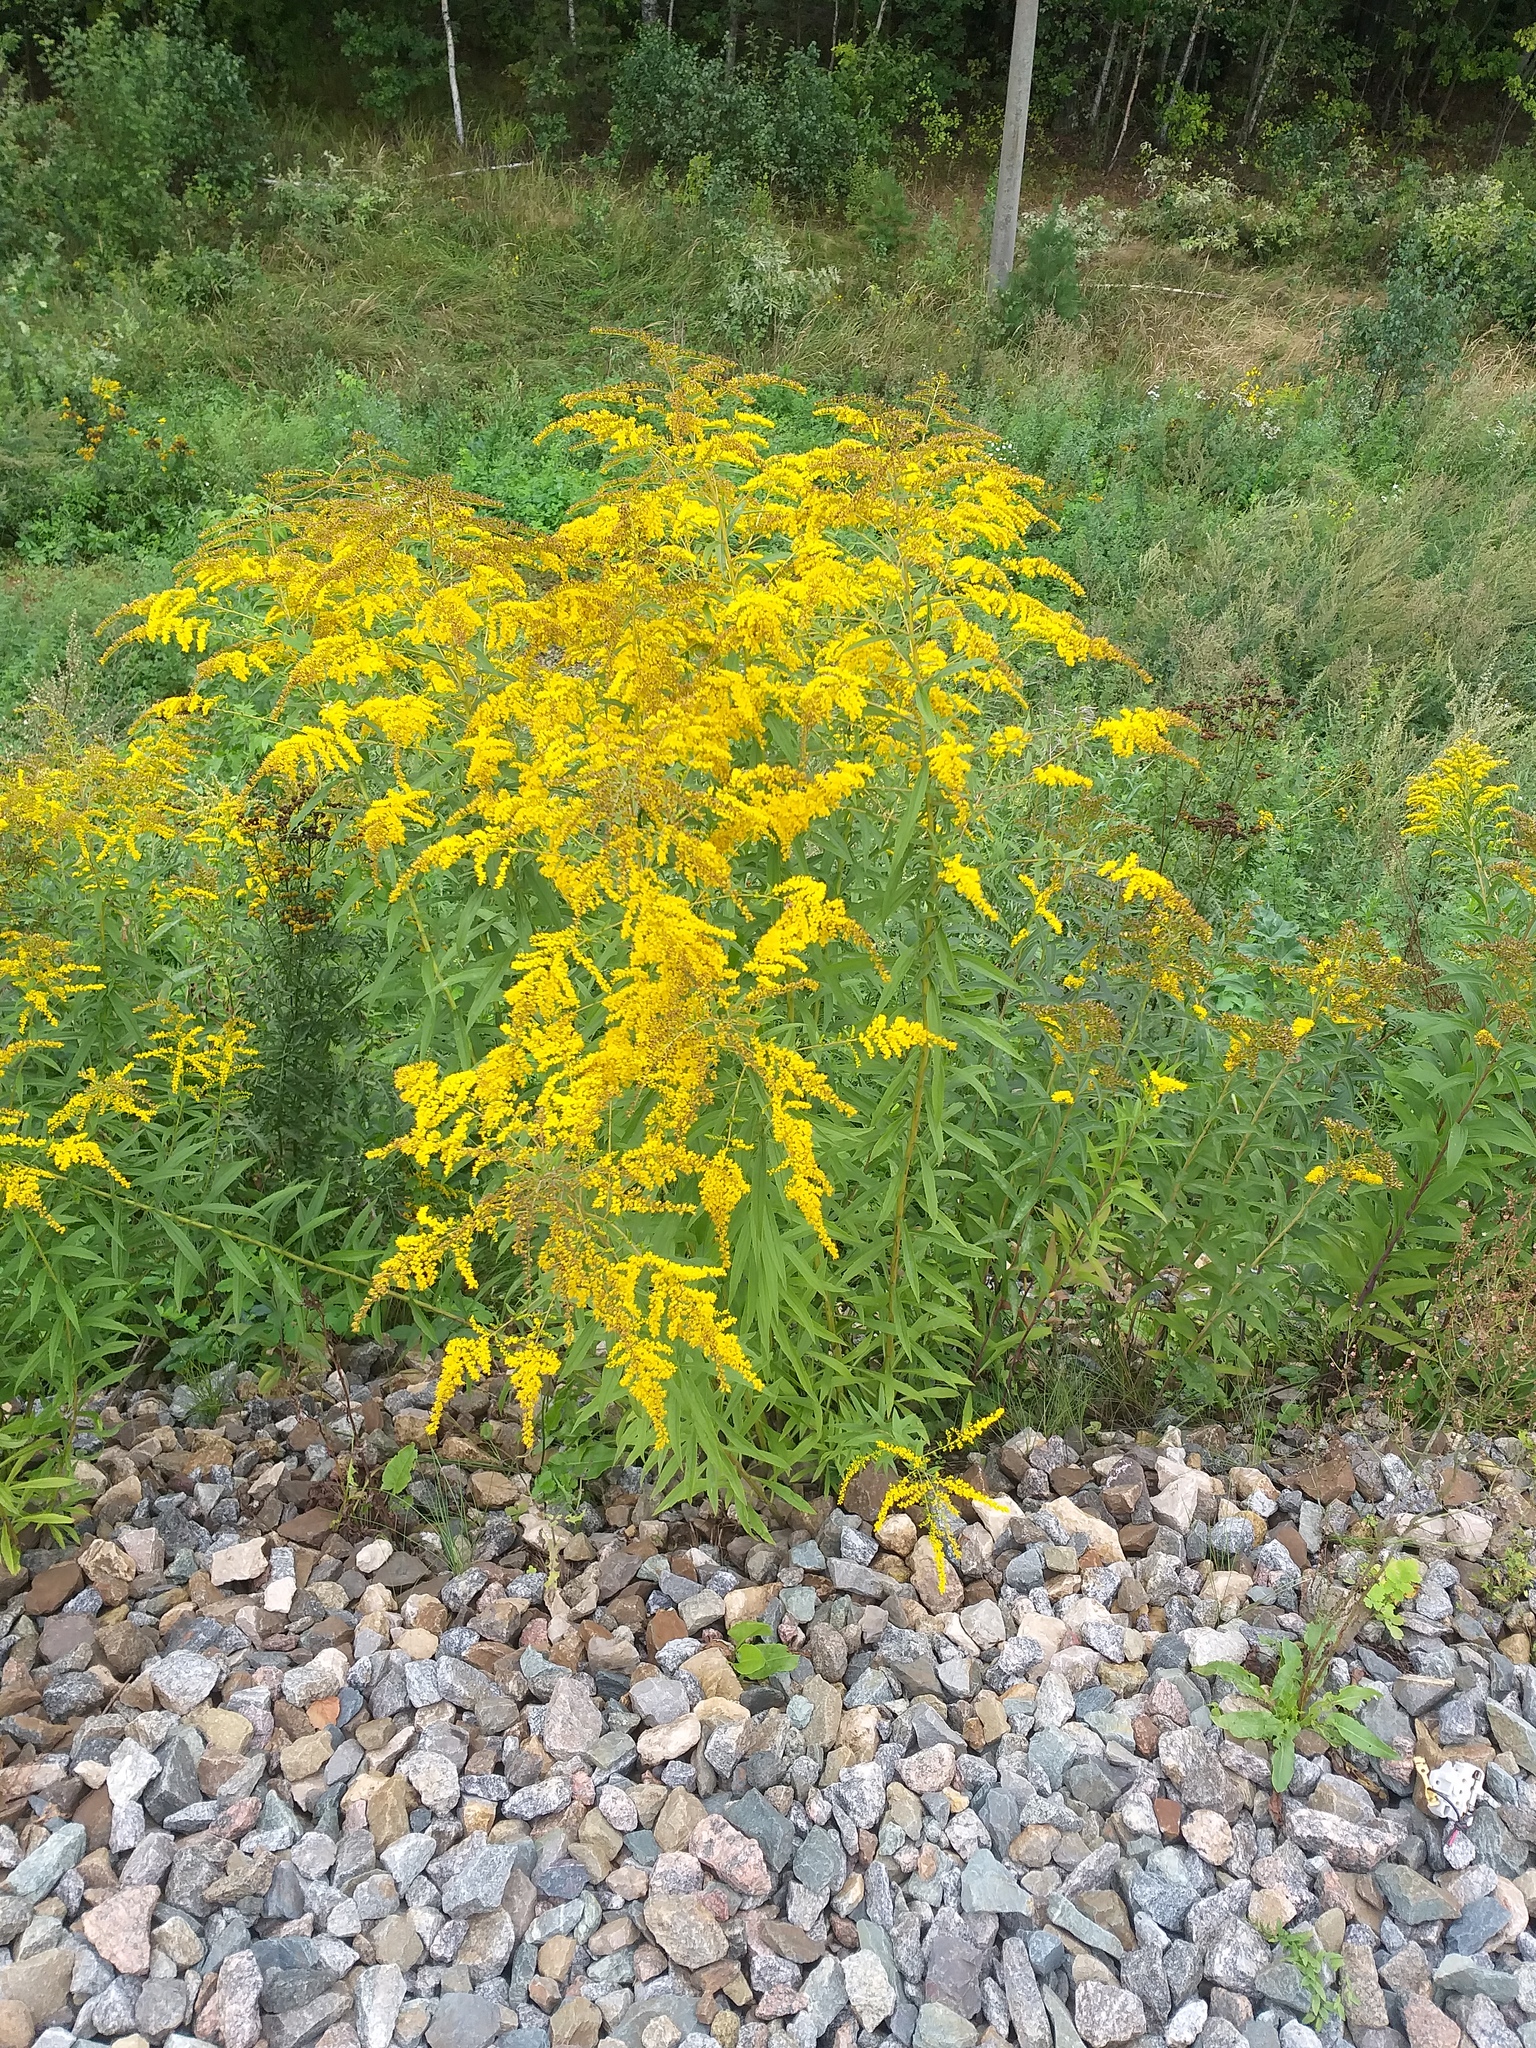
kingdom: Plantae
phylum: Tracheophyta
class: Magnoliopsida
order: Asterales
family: Asteraceae
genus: Solidago
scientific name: Solidago canadensis
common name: Canada goldenrod
